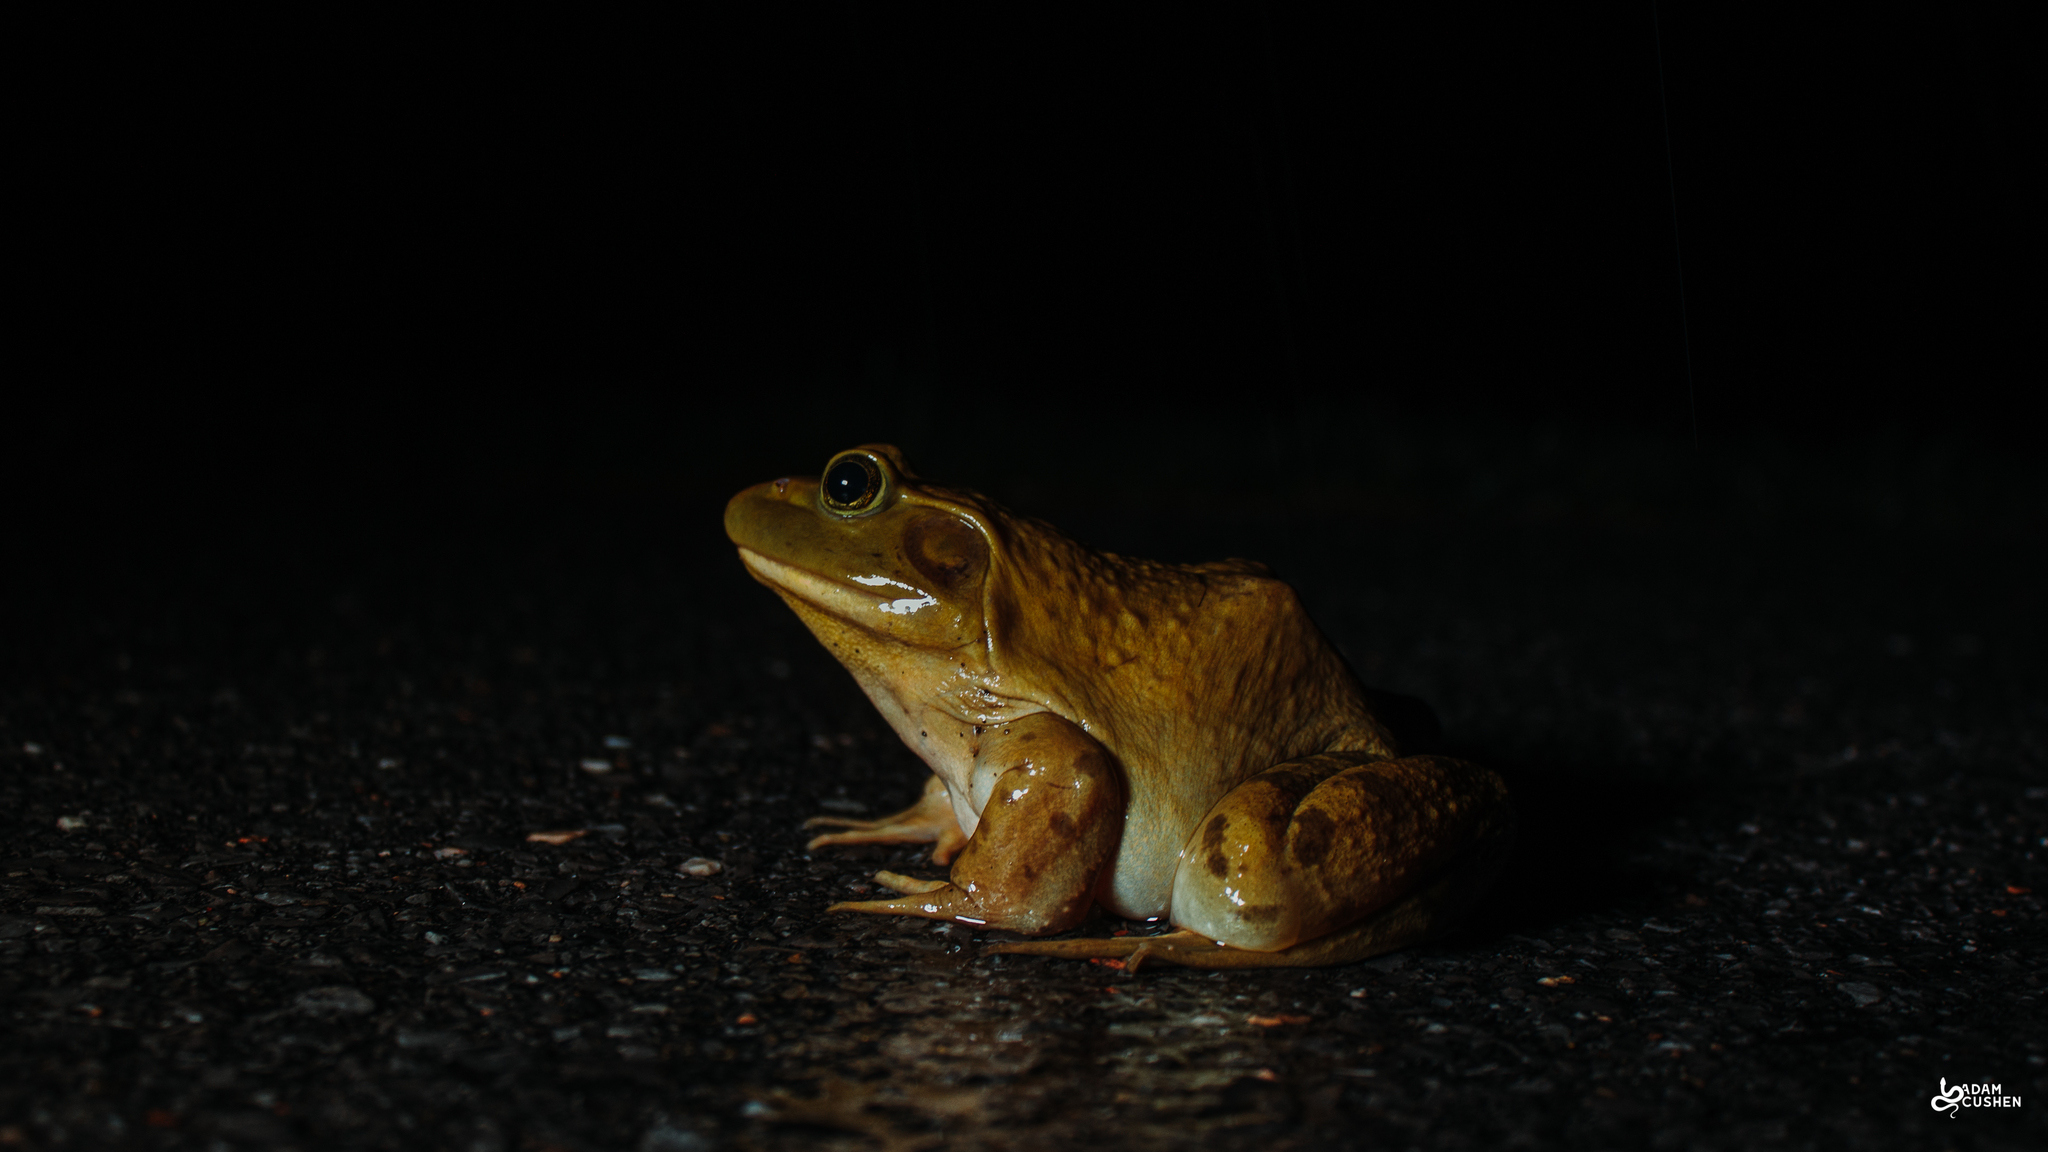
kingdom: Animalia
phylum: Chordata
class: Amphibia
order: Anura
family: Ranidae
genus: Lithobates
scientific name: Lithobates catesbeianus
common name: American bullfrog
